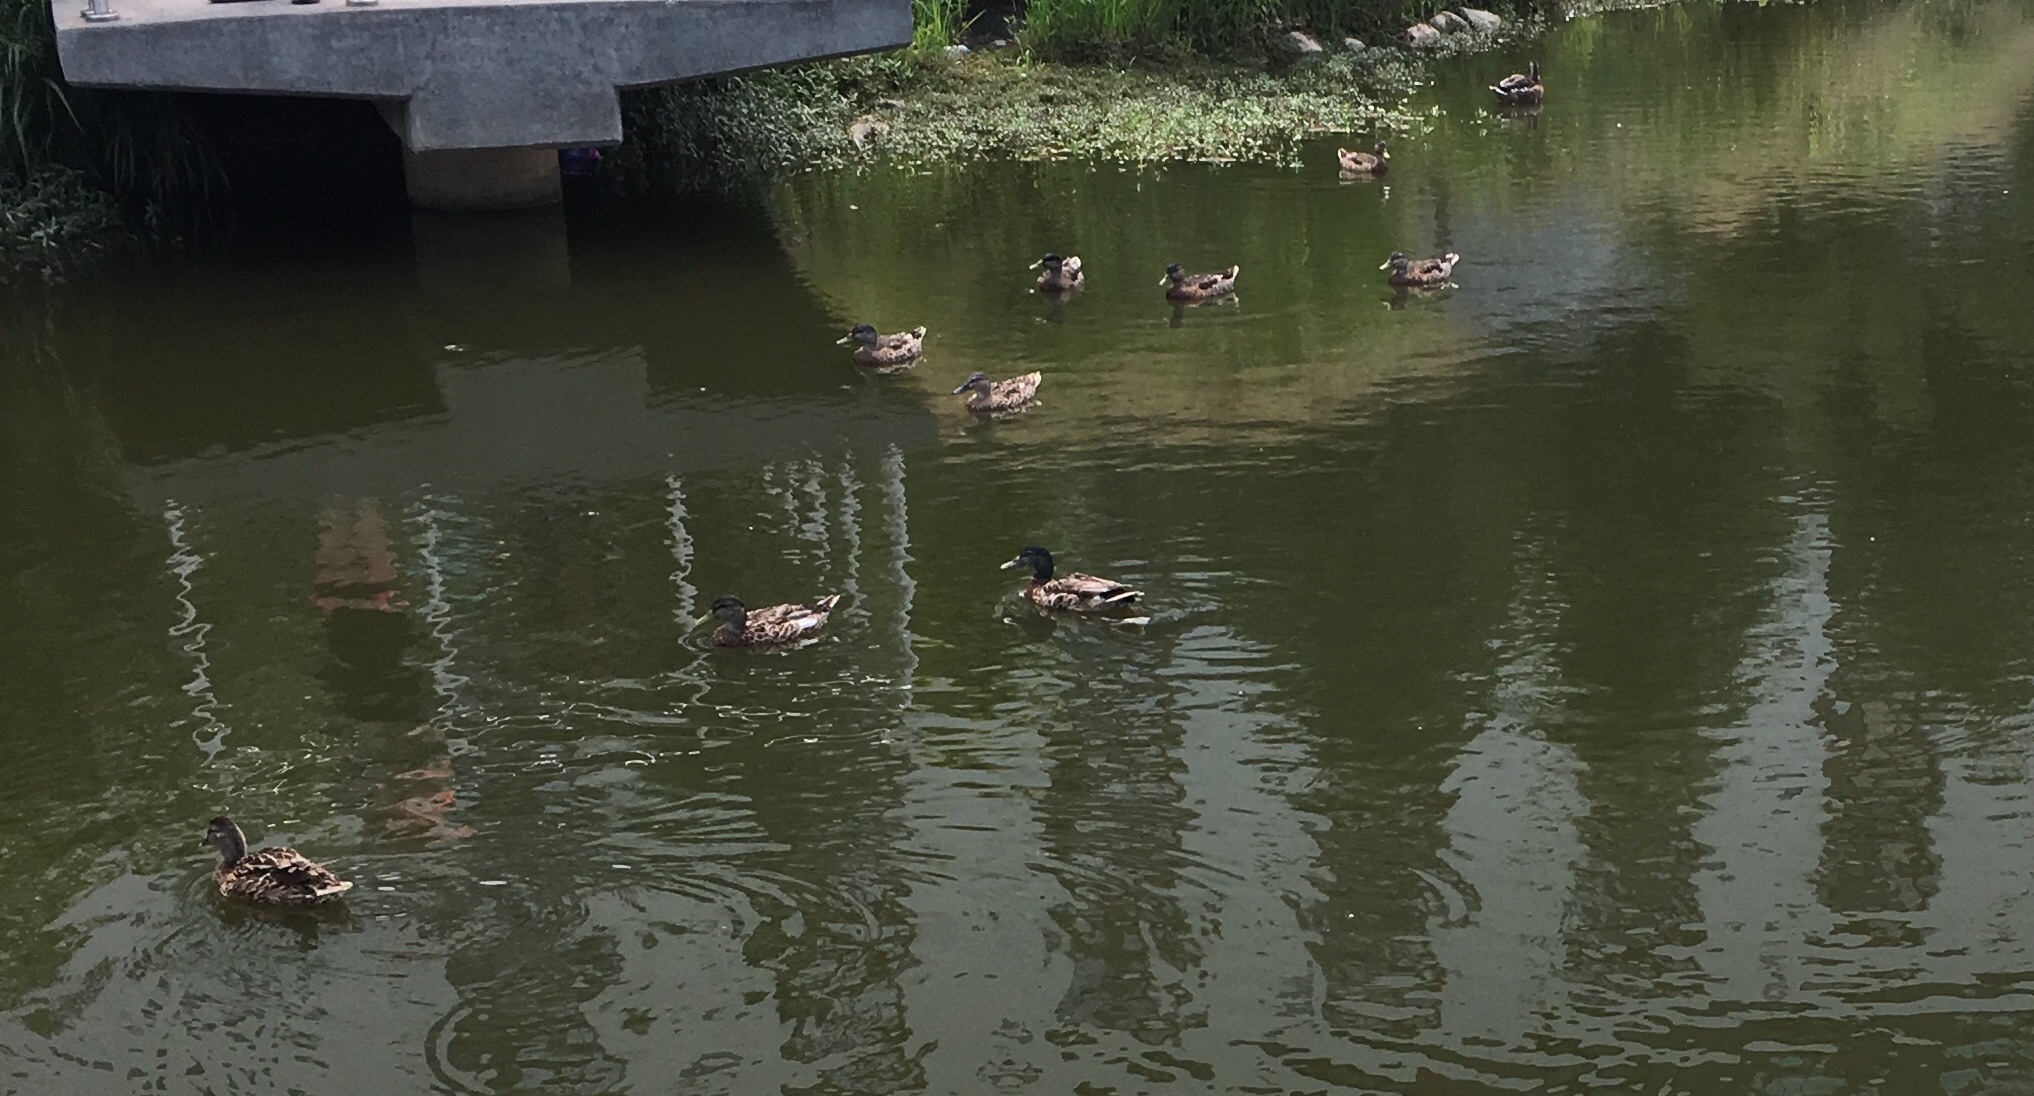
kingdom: Animalia
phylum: Chordata
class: Aves
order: Anseriformes
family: Anatidae
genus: Anas
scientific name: Anas platyrhynchos
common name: Mallard
